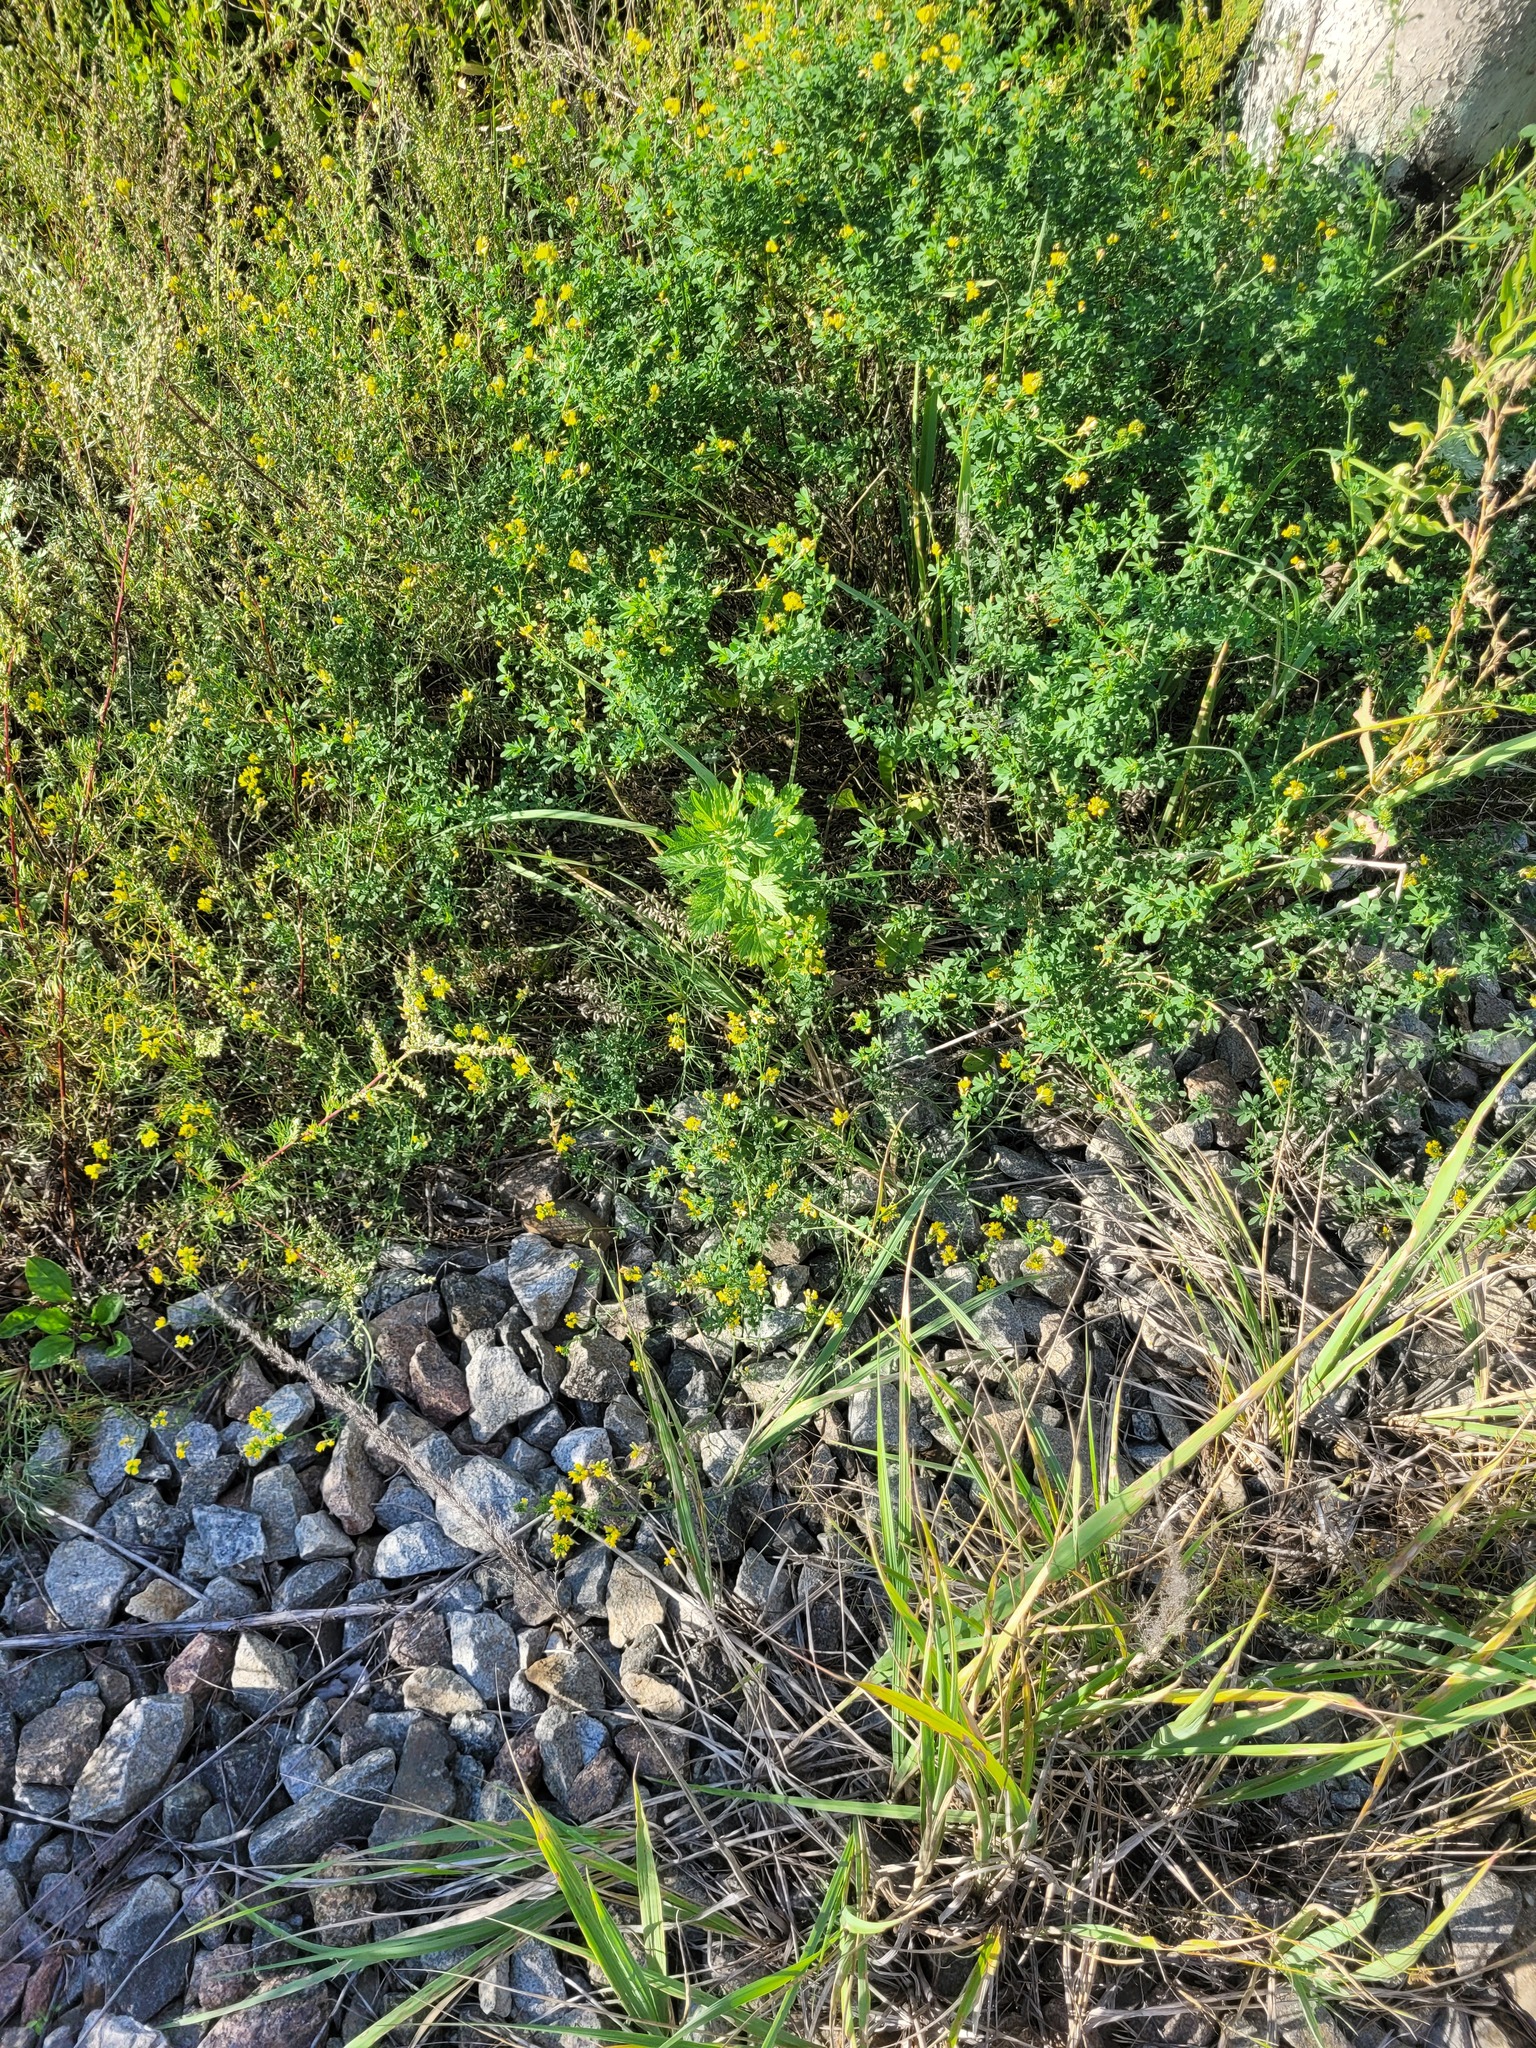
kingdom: Plantae
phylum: Tracheophyta
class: Magnoliopsida
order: Fabales
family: Fabaceae
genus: Medicago
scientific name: Medicago falcata
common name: Sickle medick
